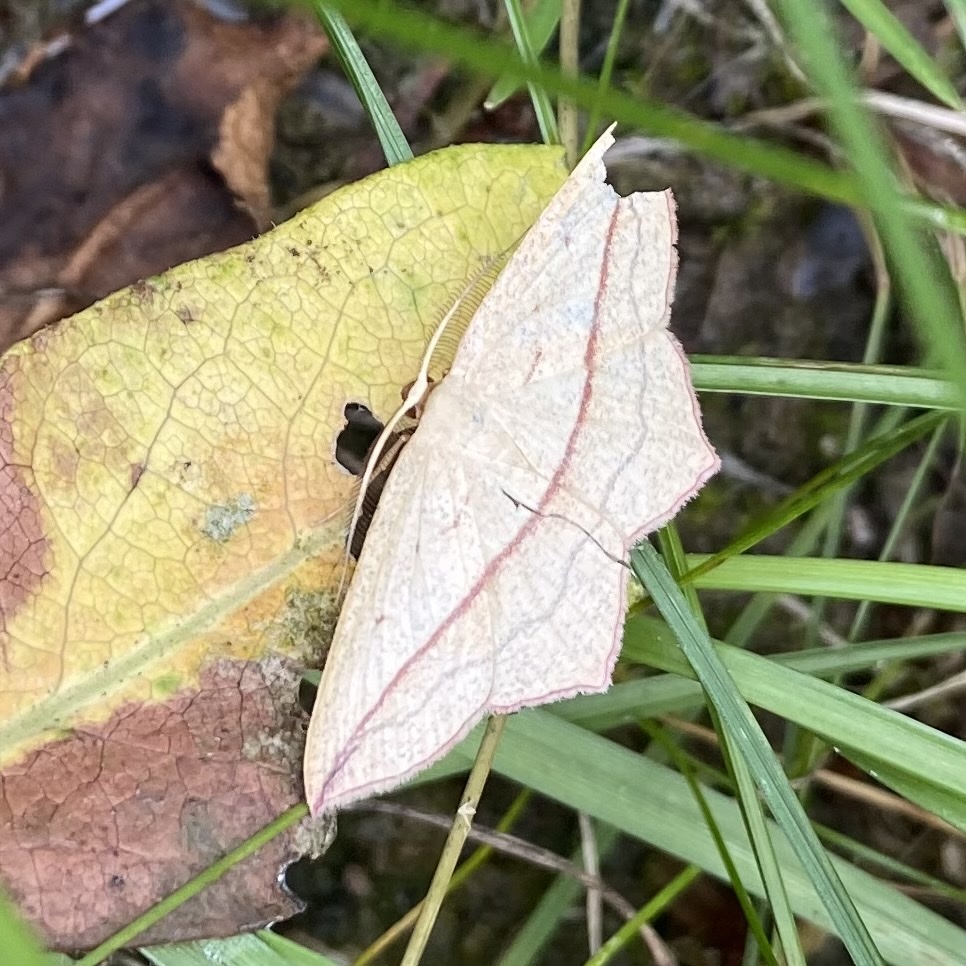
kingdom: Animalia
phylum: Arthropoda
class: Insecta
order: Lepidoptera
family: Geometridae
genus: Timandra
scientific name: Timandra comae
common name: Blood-vein
